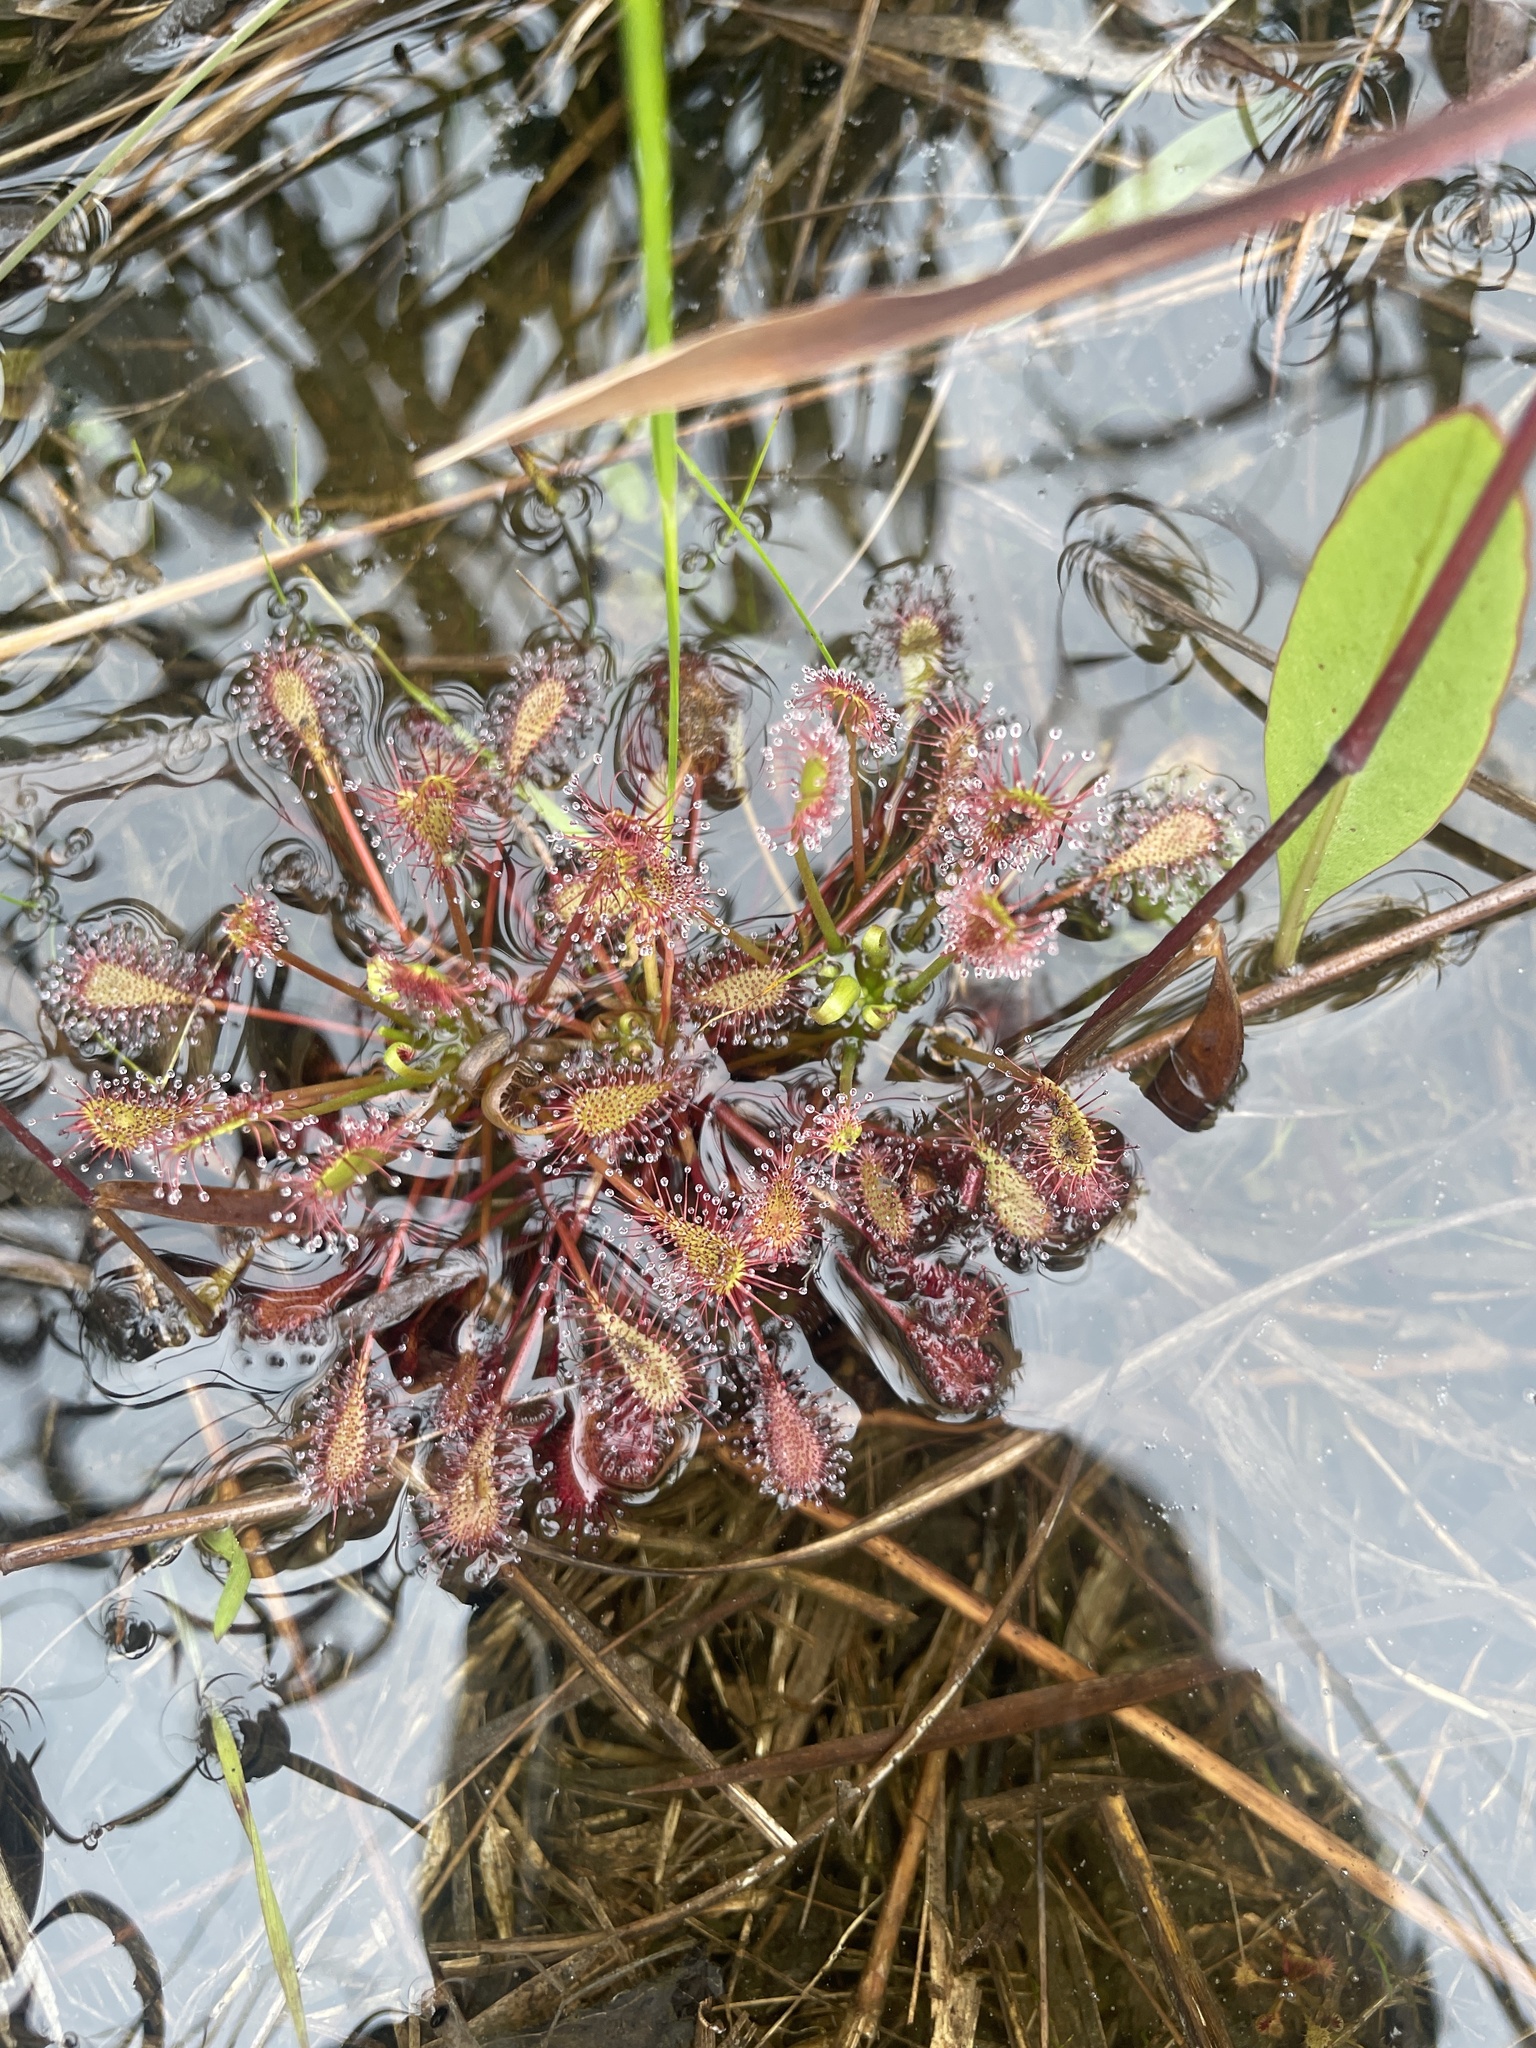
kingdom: Plantae
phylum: Tracheophyta
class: Magnoliopsida
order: Caryophyllales
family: Droseraceae
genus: Drosera
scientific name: Drosera intermedia
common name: Oblong-leaved sundew
